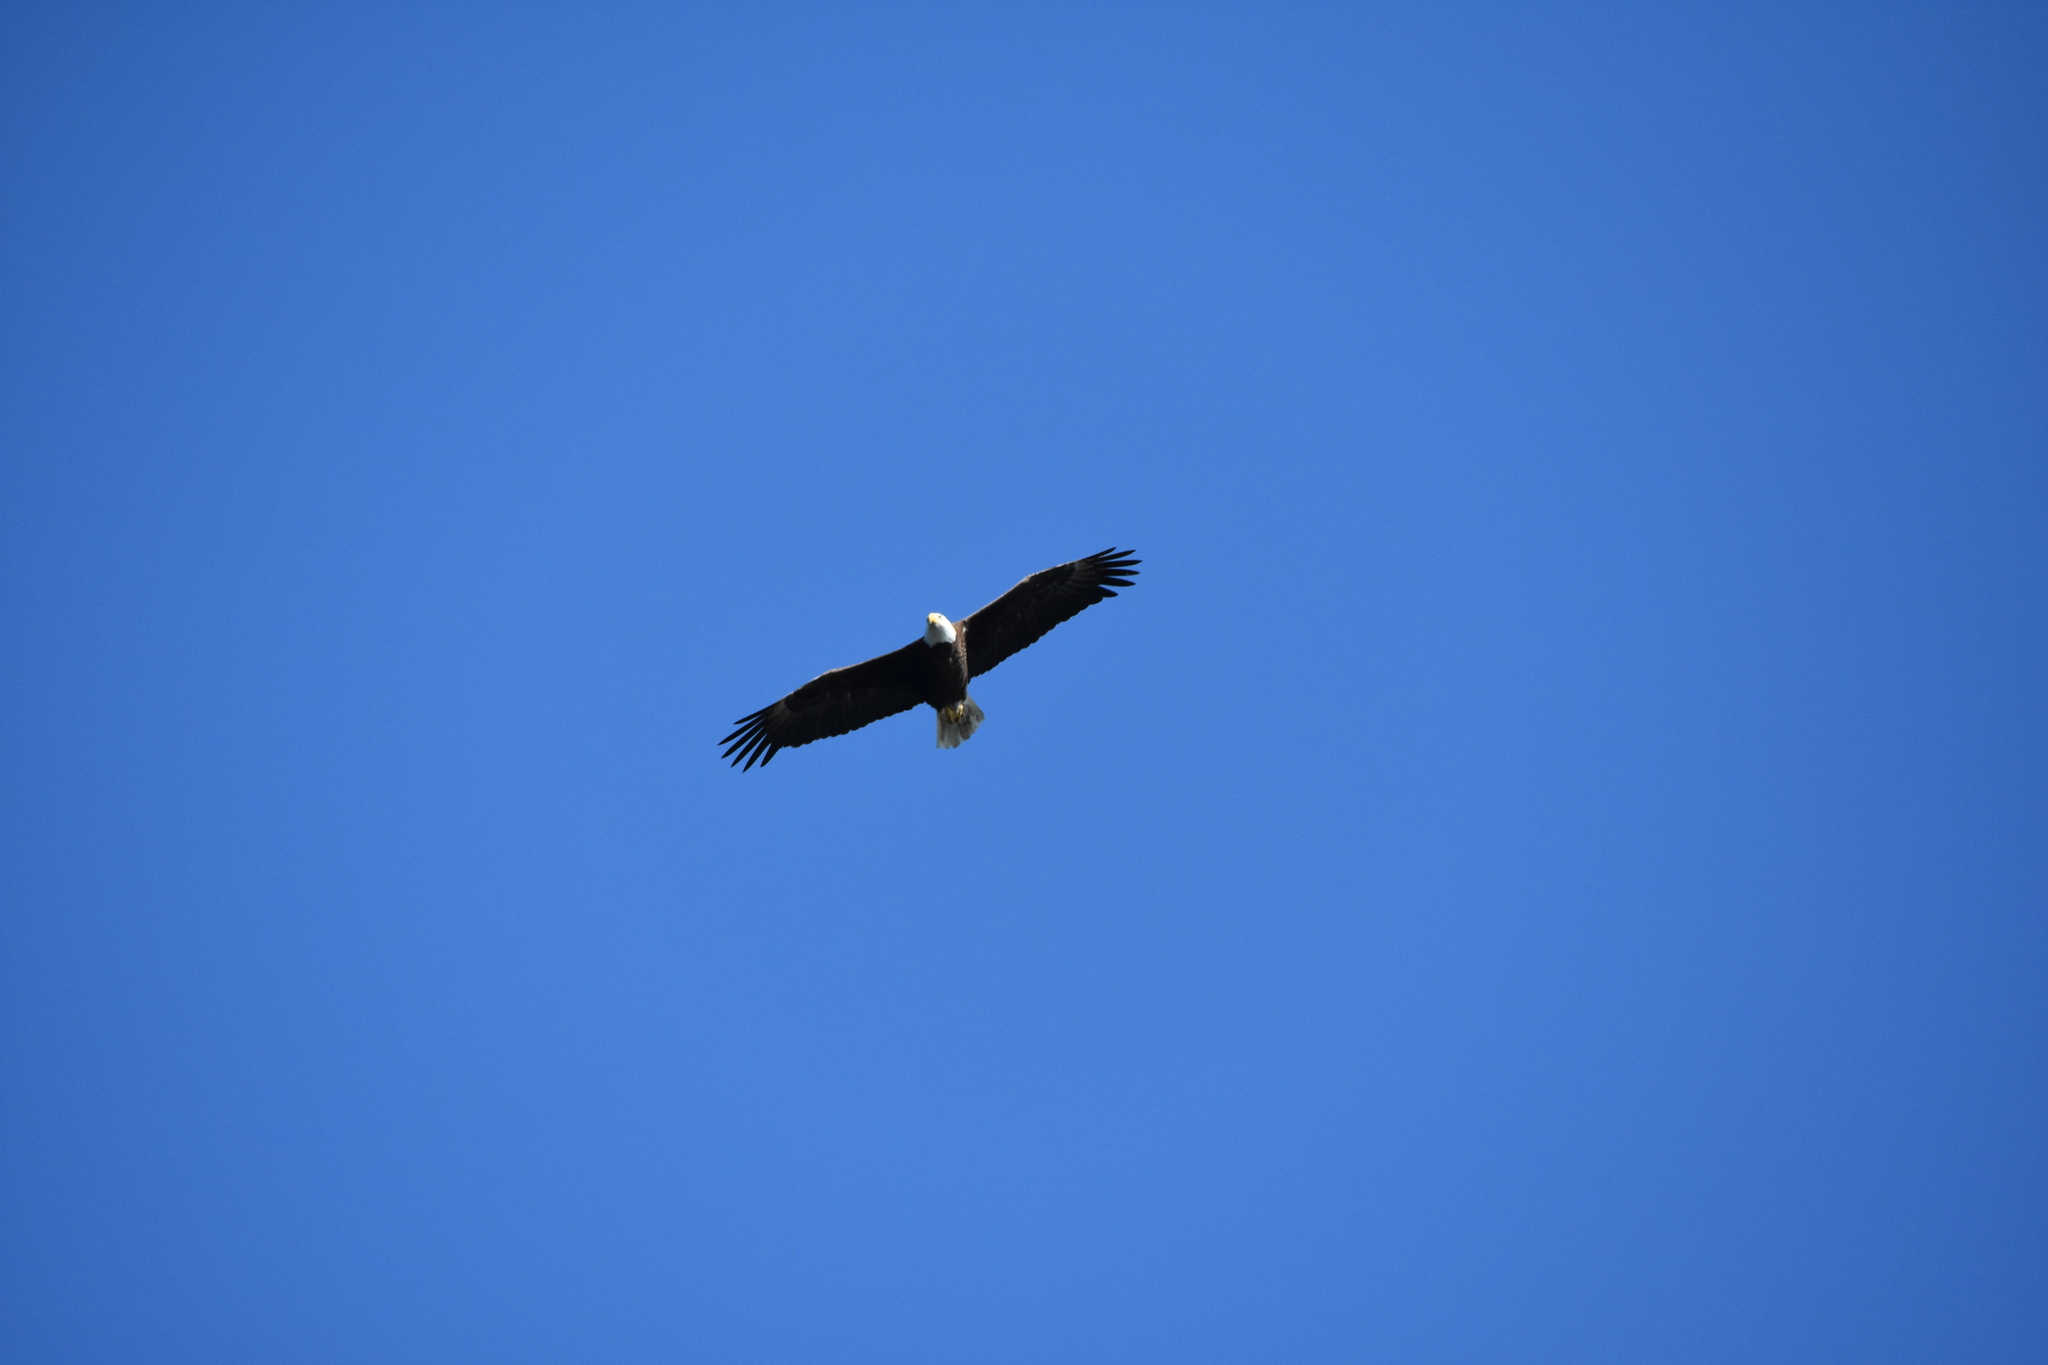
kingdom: Animalia
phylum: Chordata
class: Aves
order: Accipitriformes
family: Accipitridae
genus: Haliaeetus
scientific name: Haliaeetus leucocephalus
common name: Bald eagle
